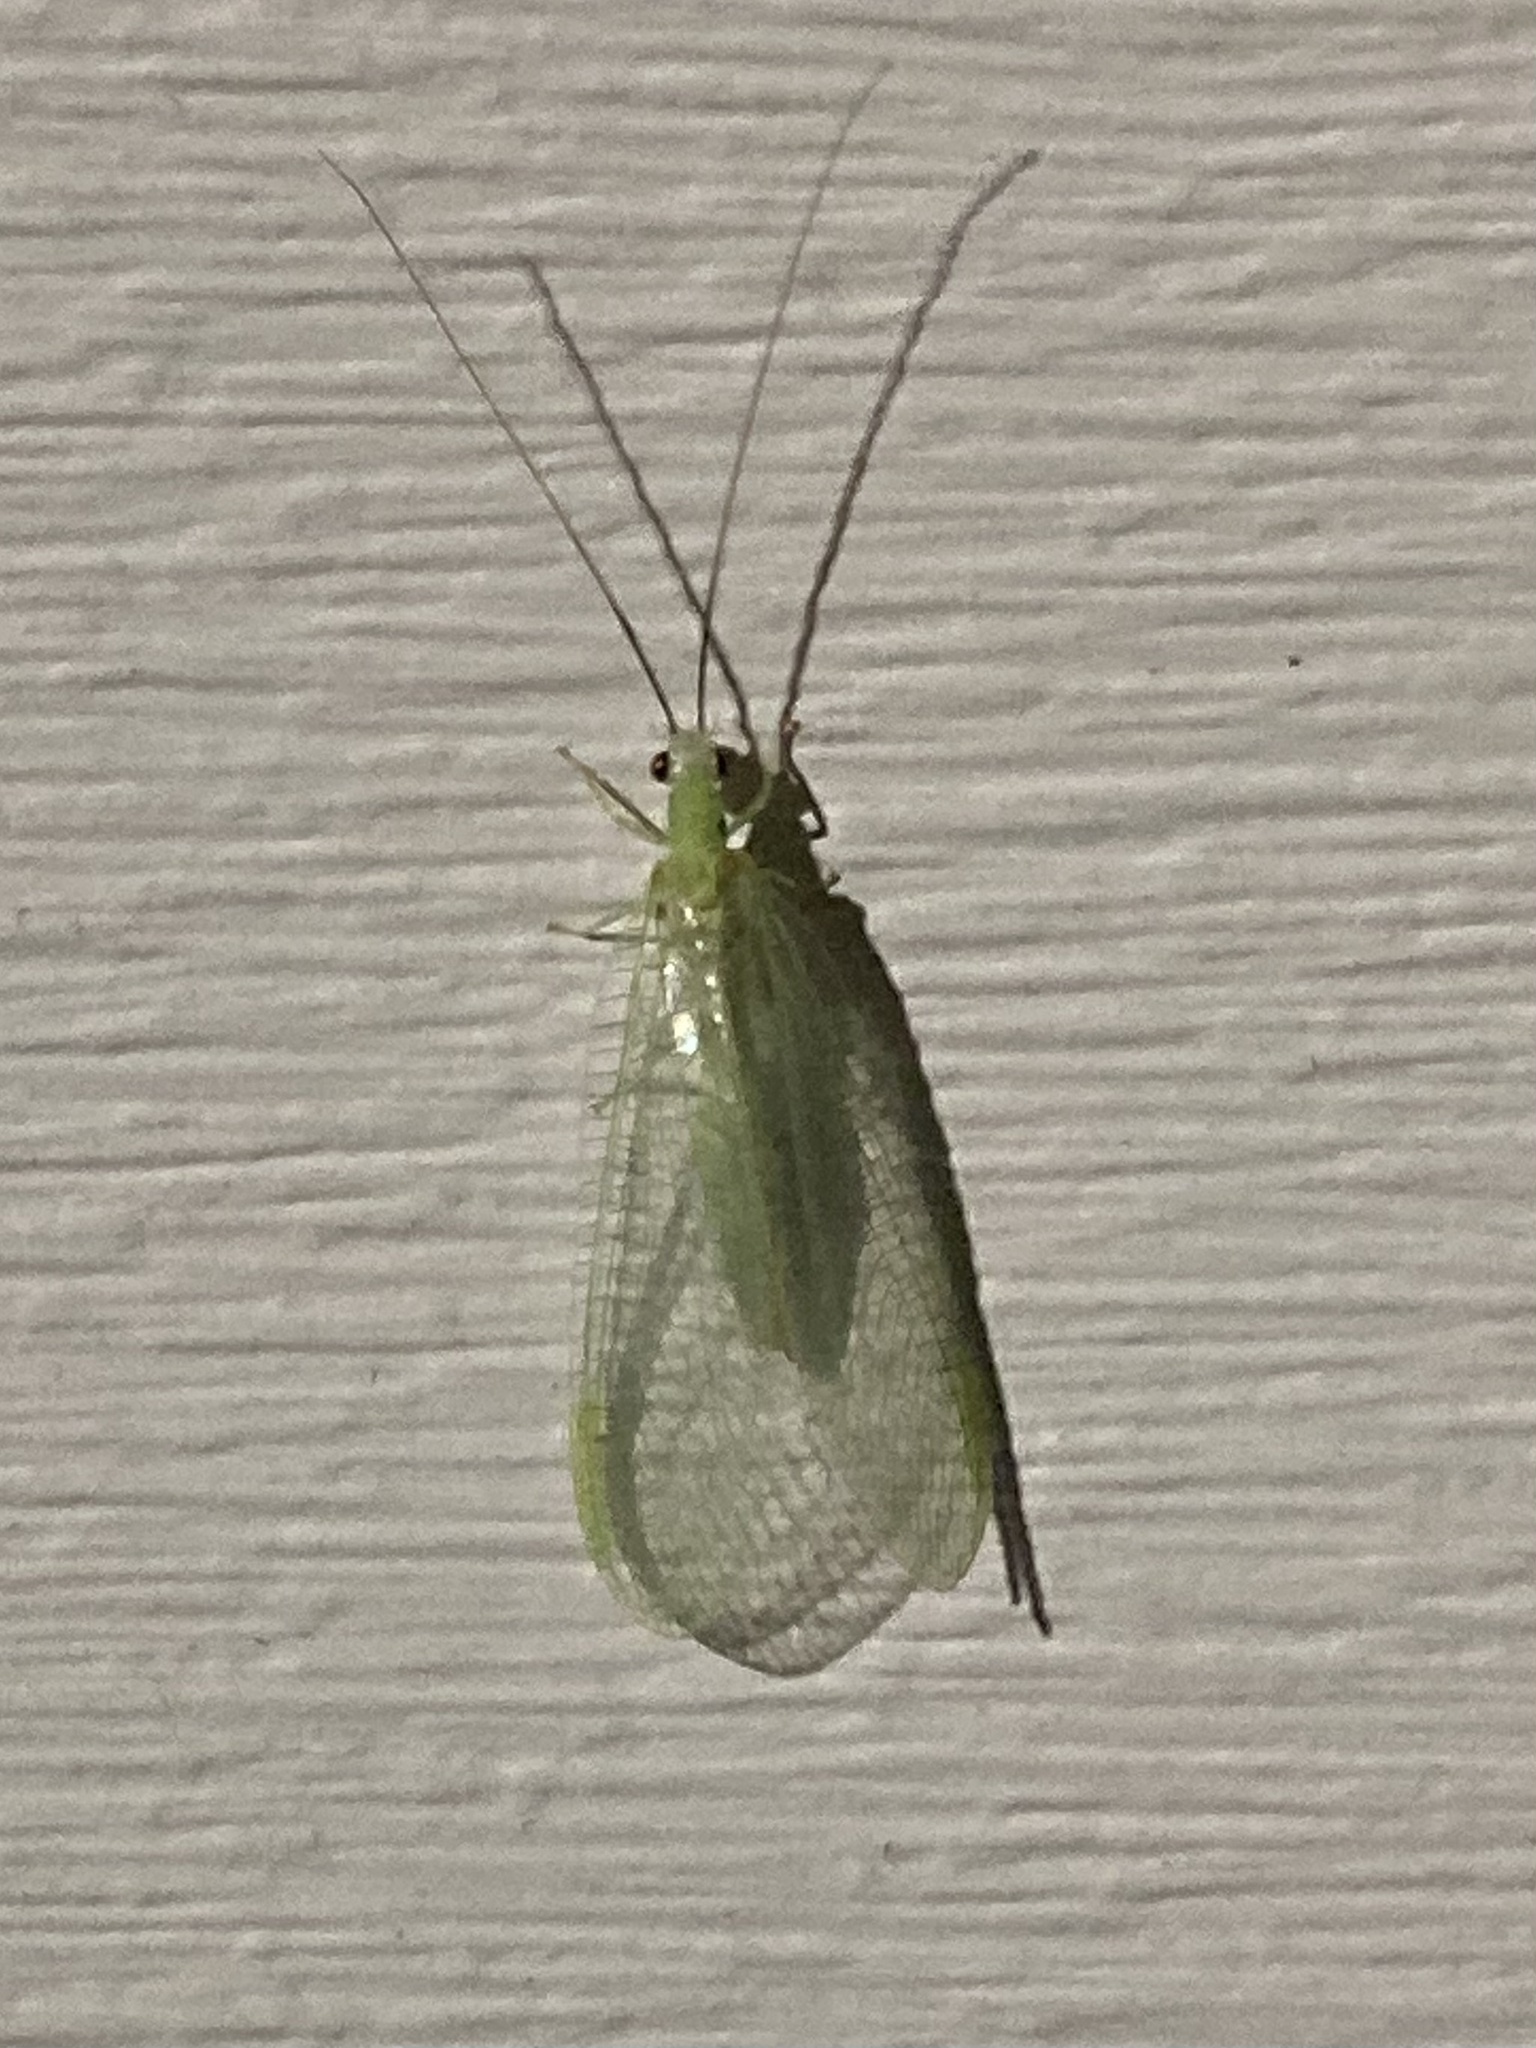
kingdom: Animalia
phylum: Arthropoda
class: Insecta
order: Neuroptera
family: Chrysopidae
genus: Chrysopa
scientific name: Chrysopa nigricornis
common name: Black-horned green lacewing
